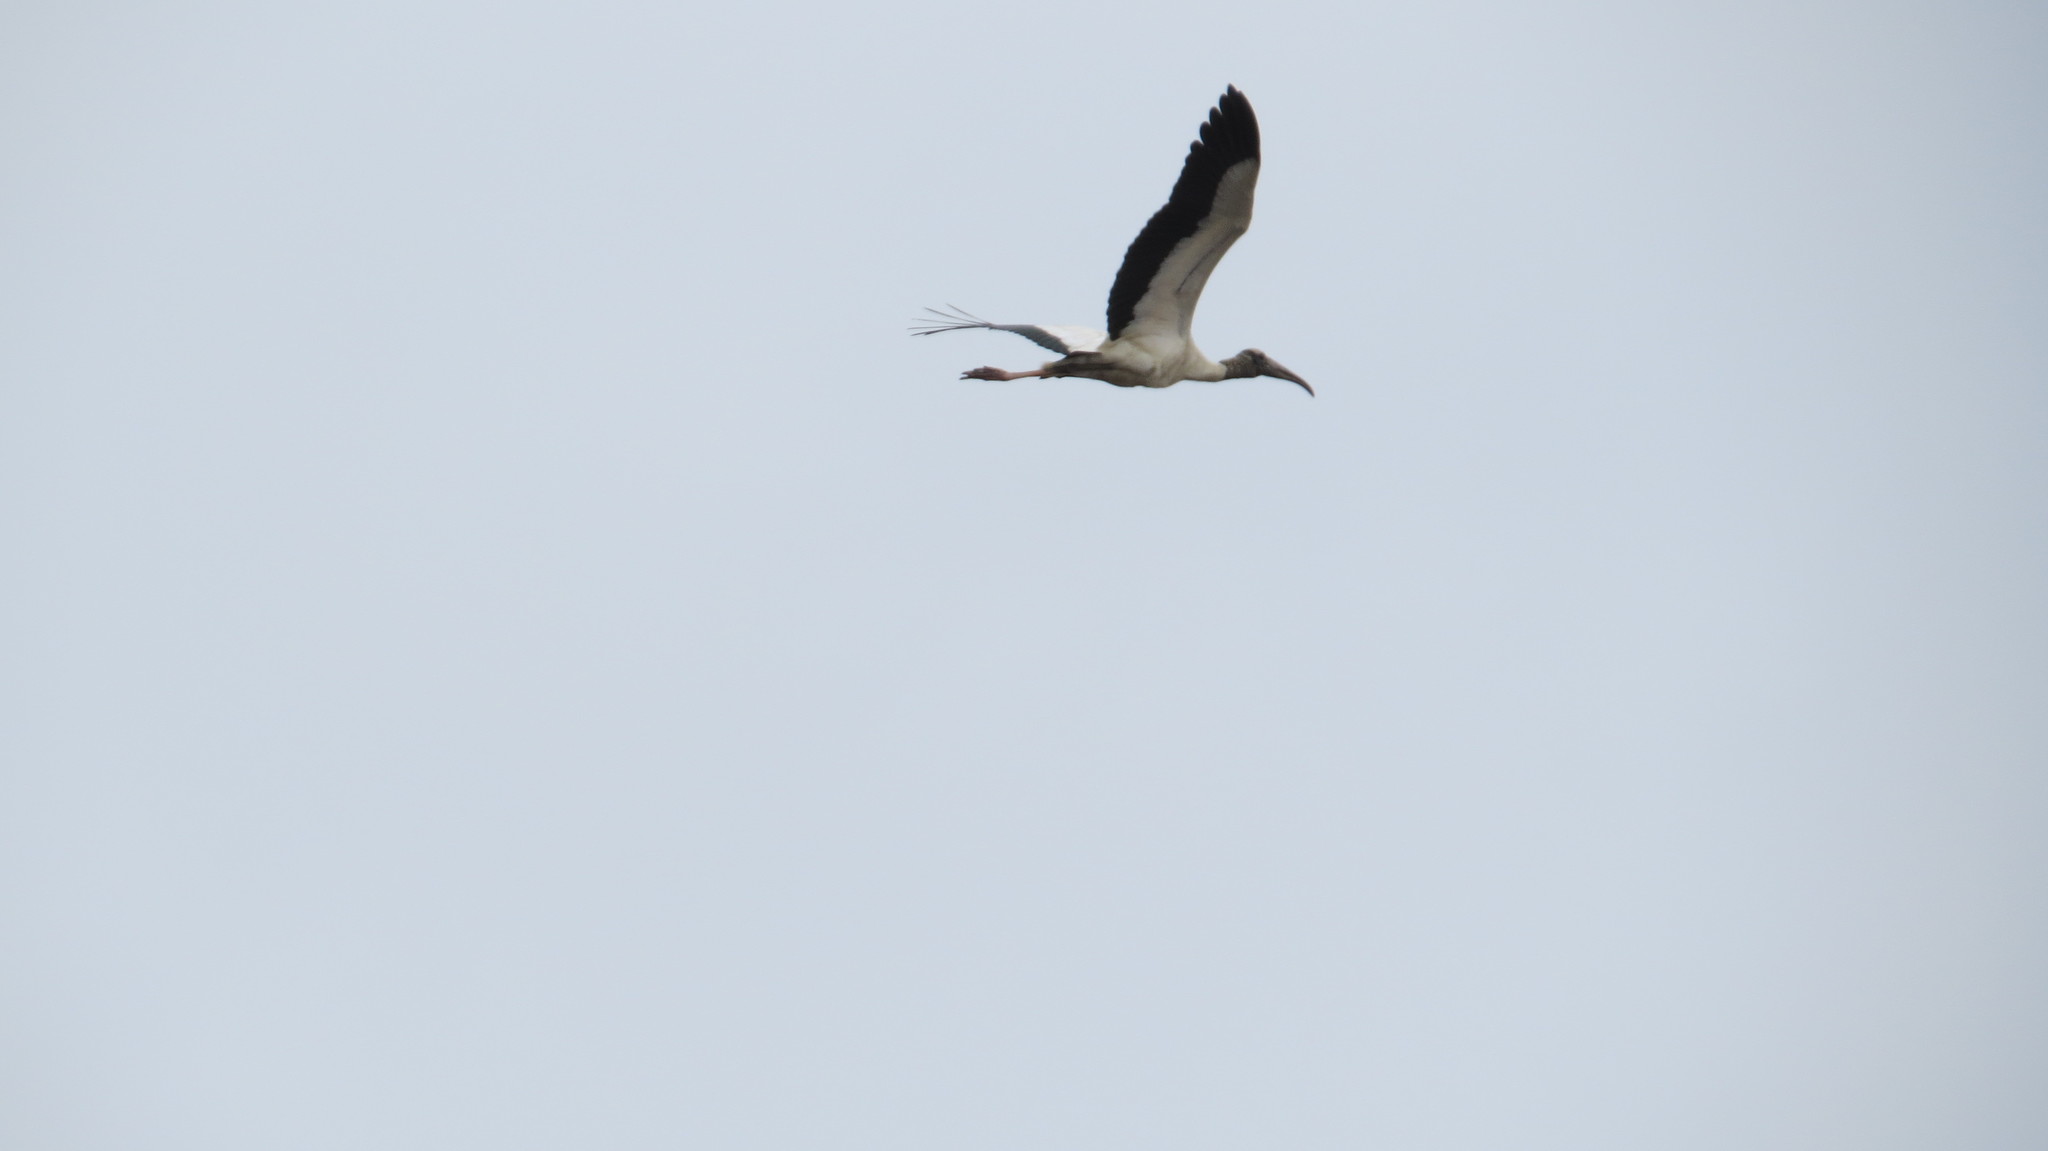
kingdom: Animalia
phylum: Chordata
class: Aves
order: Ciconiiformes
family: Ciconiidae
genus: Mycteria
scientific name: Mycteria americana
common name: Wood stork
